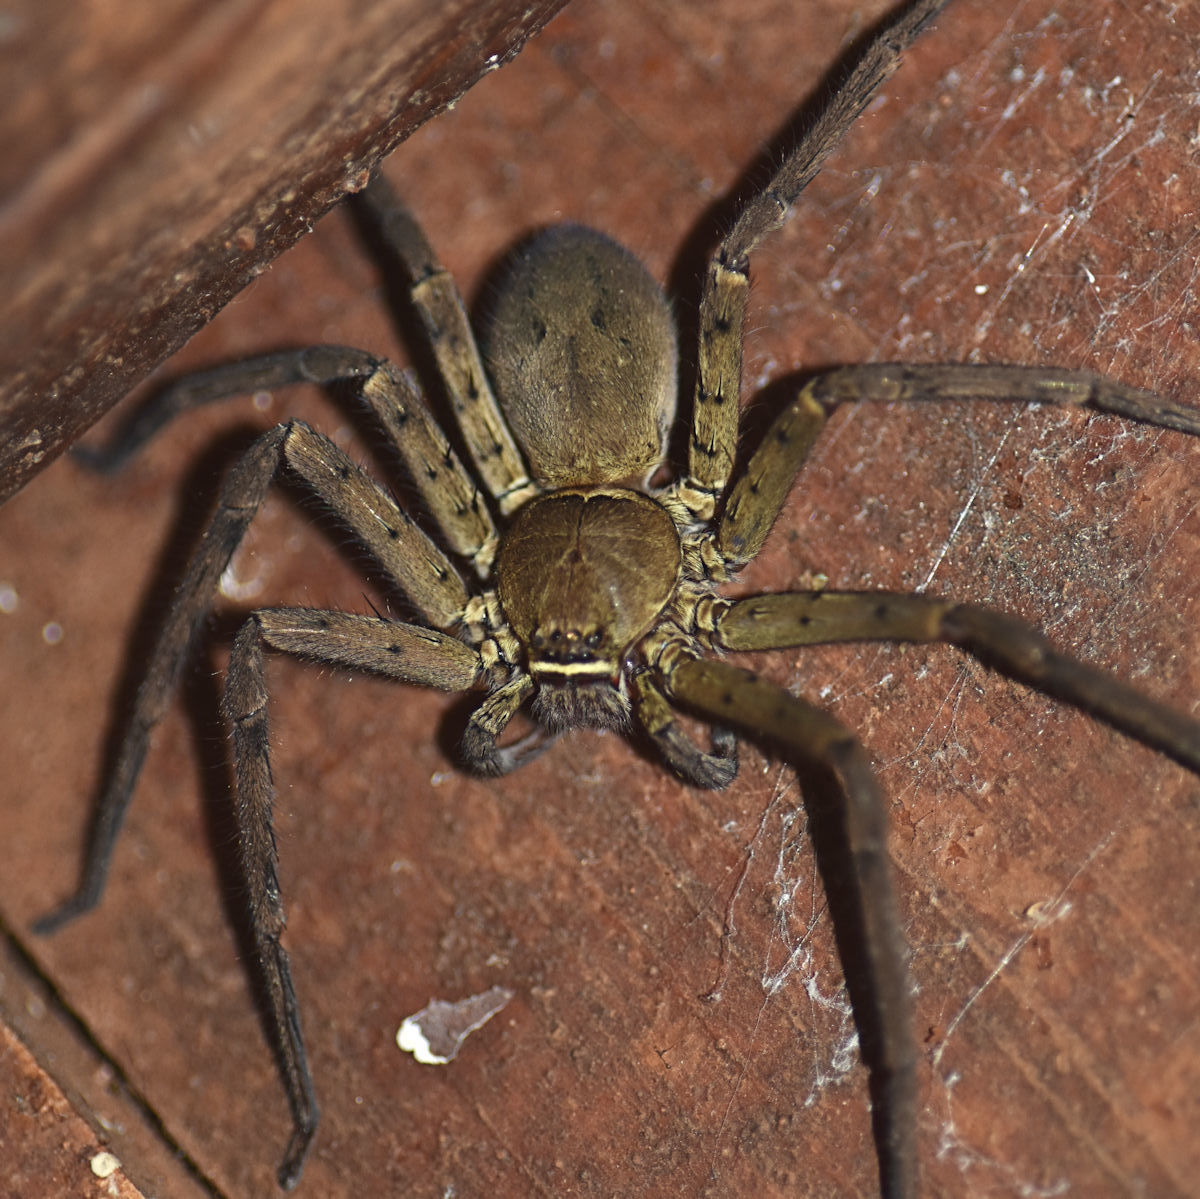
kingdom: Animalia
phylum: Arthropoda
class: Arachnida
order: Araneae
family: Sparassidae
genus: Heteropoda
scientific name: Heteropoda venatoria
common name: Huntsman spider
